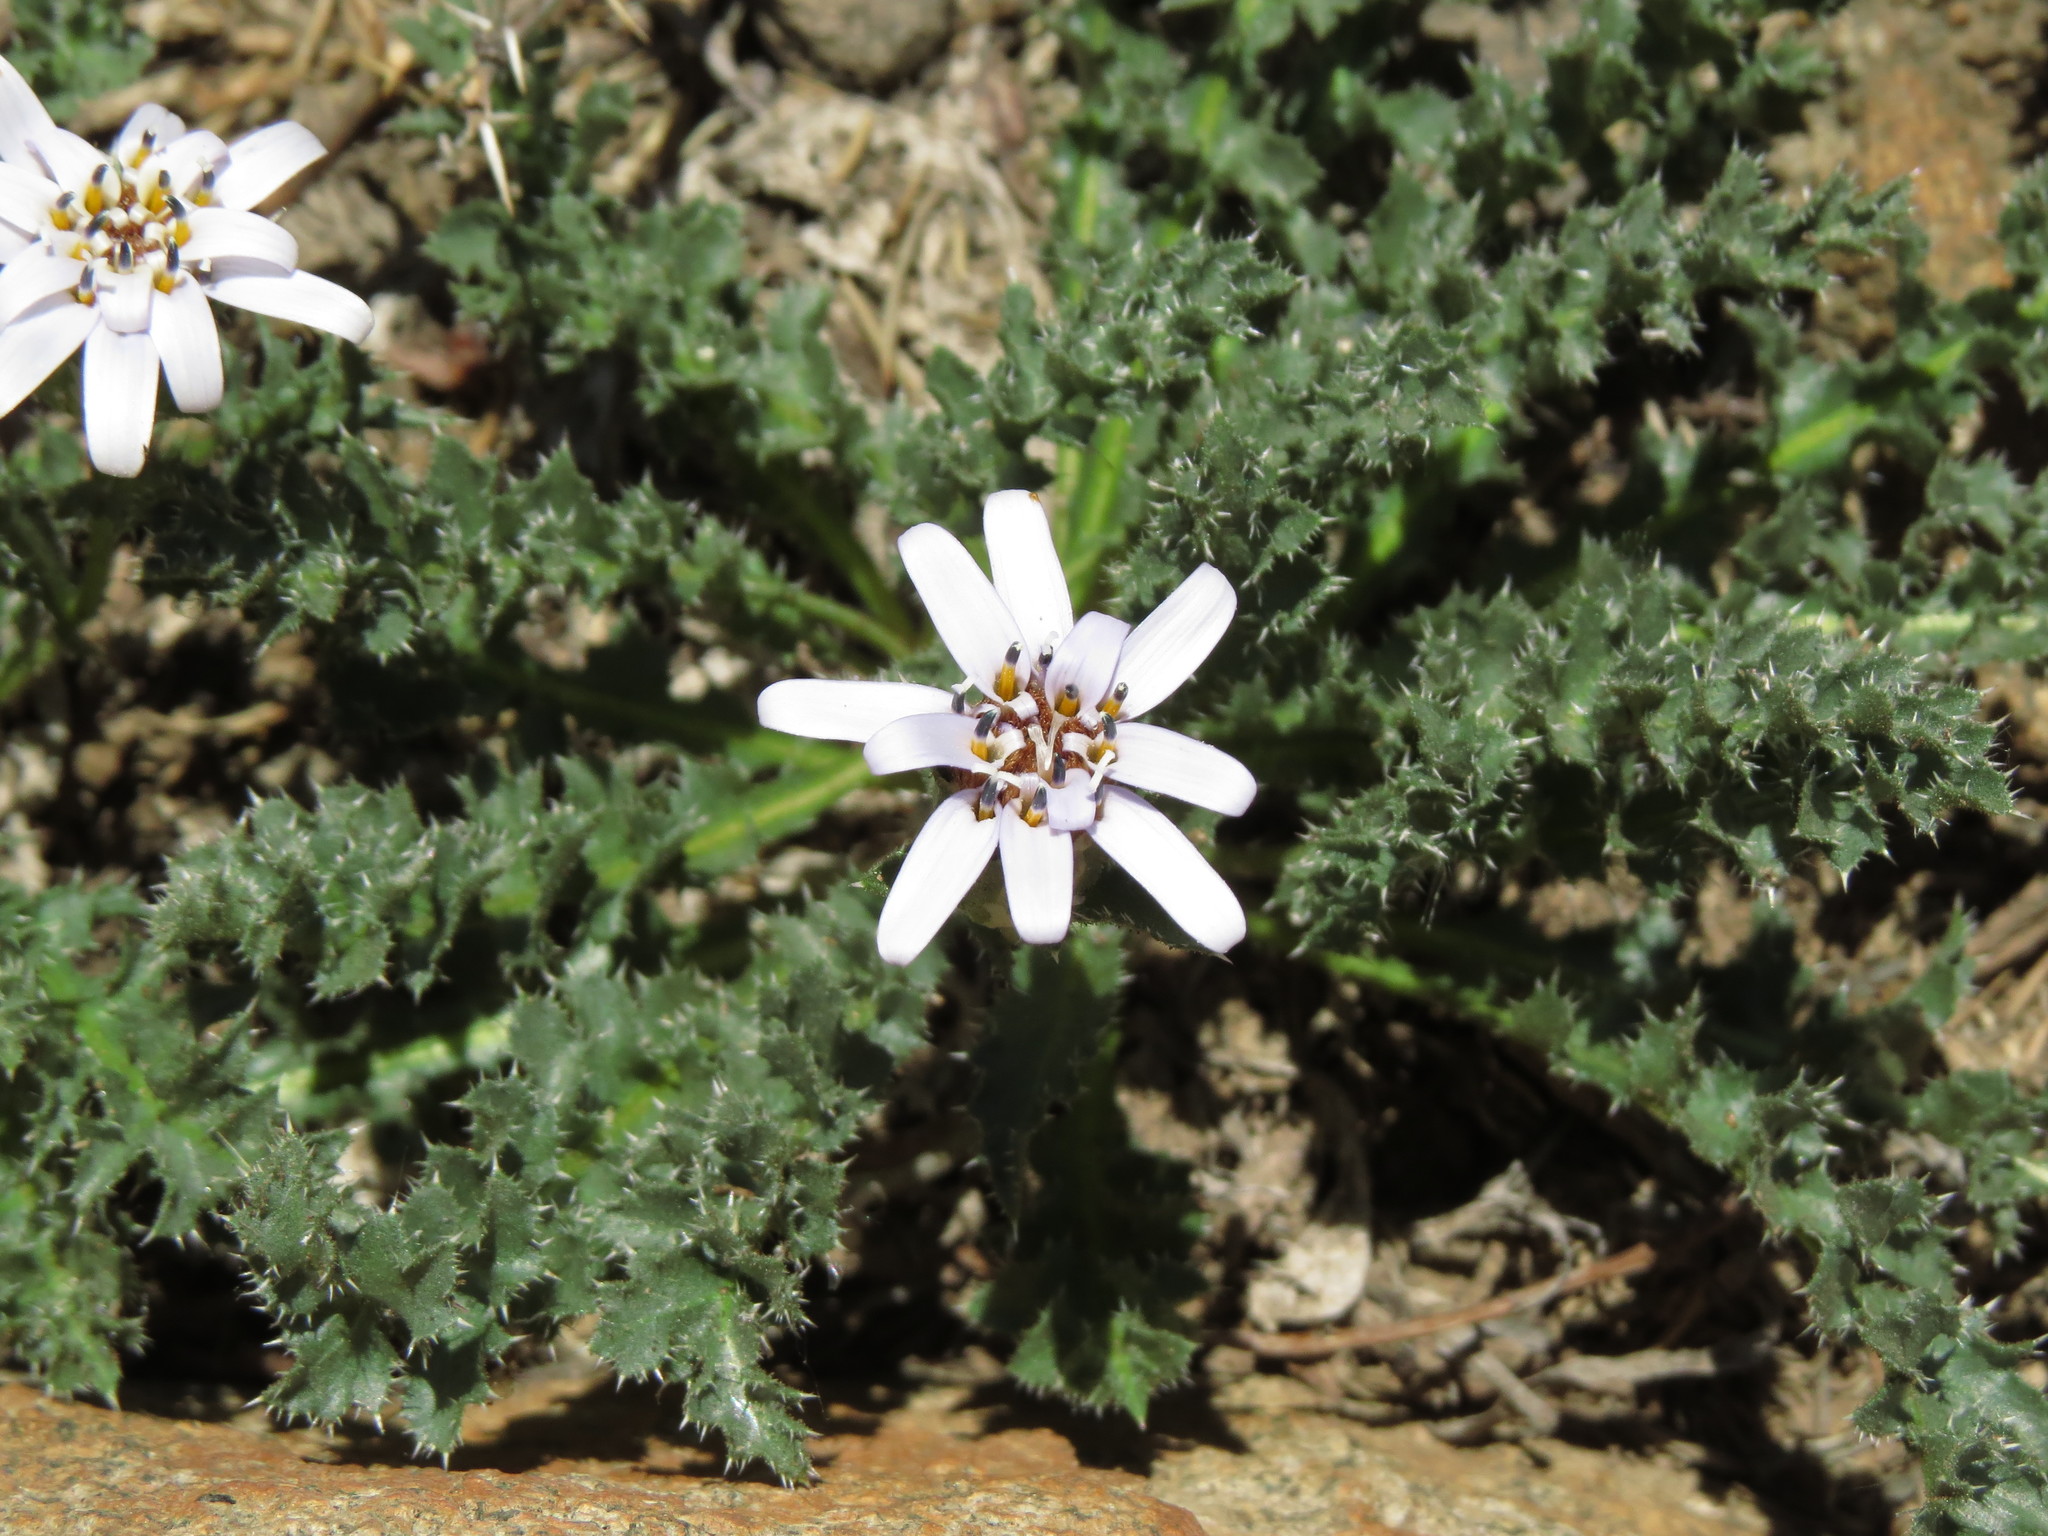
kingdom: Plantae
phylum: Tracheophyta
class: Magnoliopsida
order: Asterales
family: Asteraceae
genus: Perezia
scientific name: Perezia carthamoides
